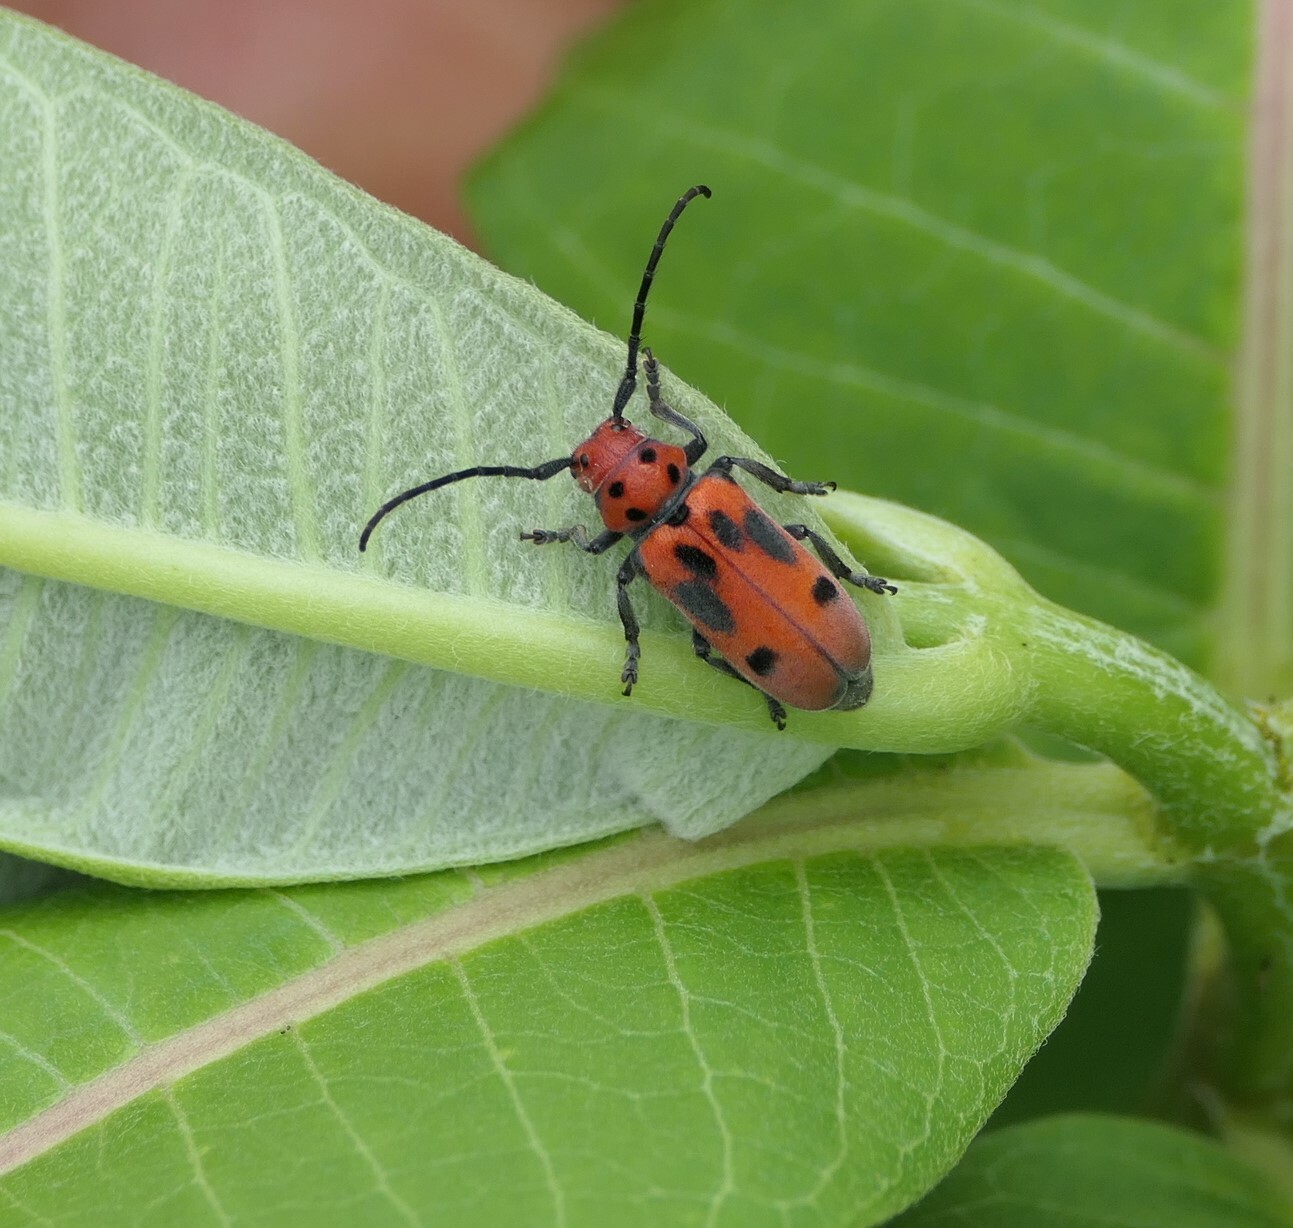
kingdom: Animalia
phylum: Arthropoda
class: Insecta
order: Coleoptera
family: Cerambycidae
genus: Tetraopes
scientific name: Tetraopes tetrophthalmus
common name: Red milkweed beetle
